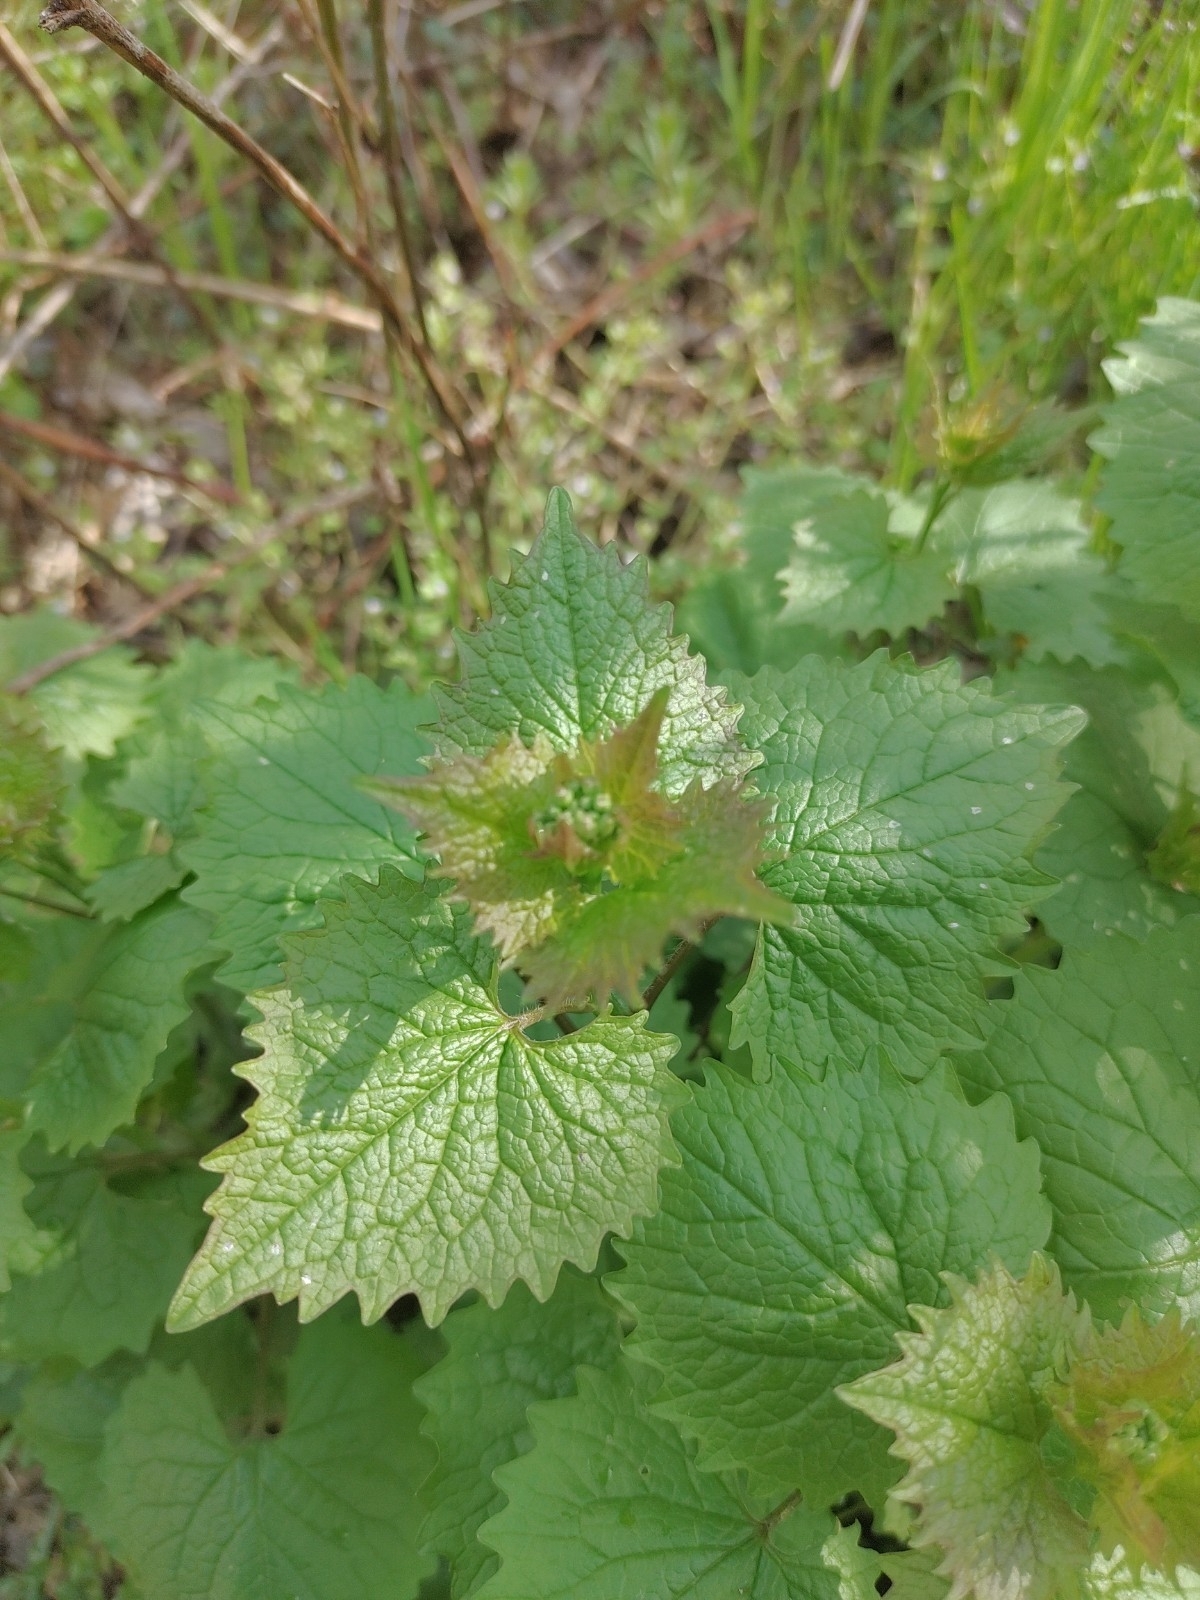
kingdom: Plantae
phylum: Tracheophyta
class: Magnoliopsida
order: Brassicales
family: Brassicaceae
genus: Alliaria
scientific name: Alliaria petiolata
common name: Garlic mustard
